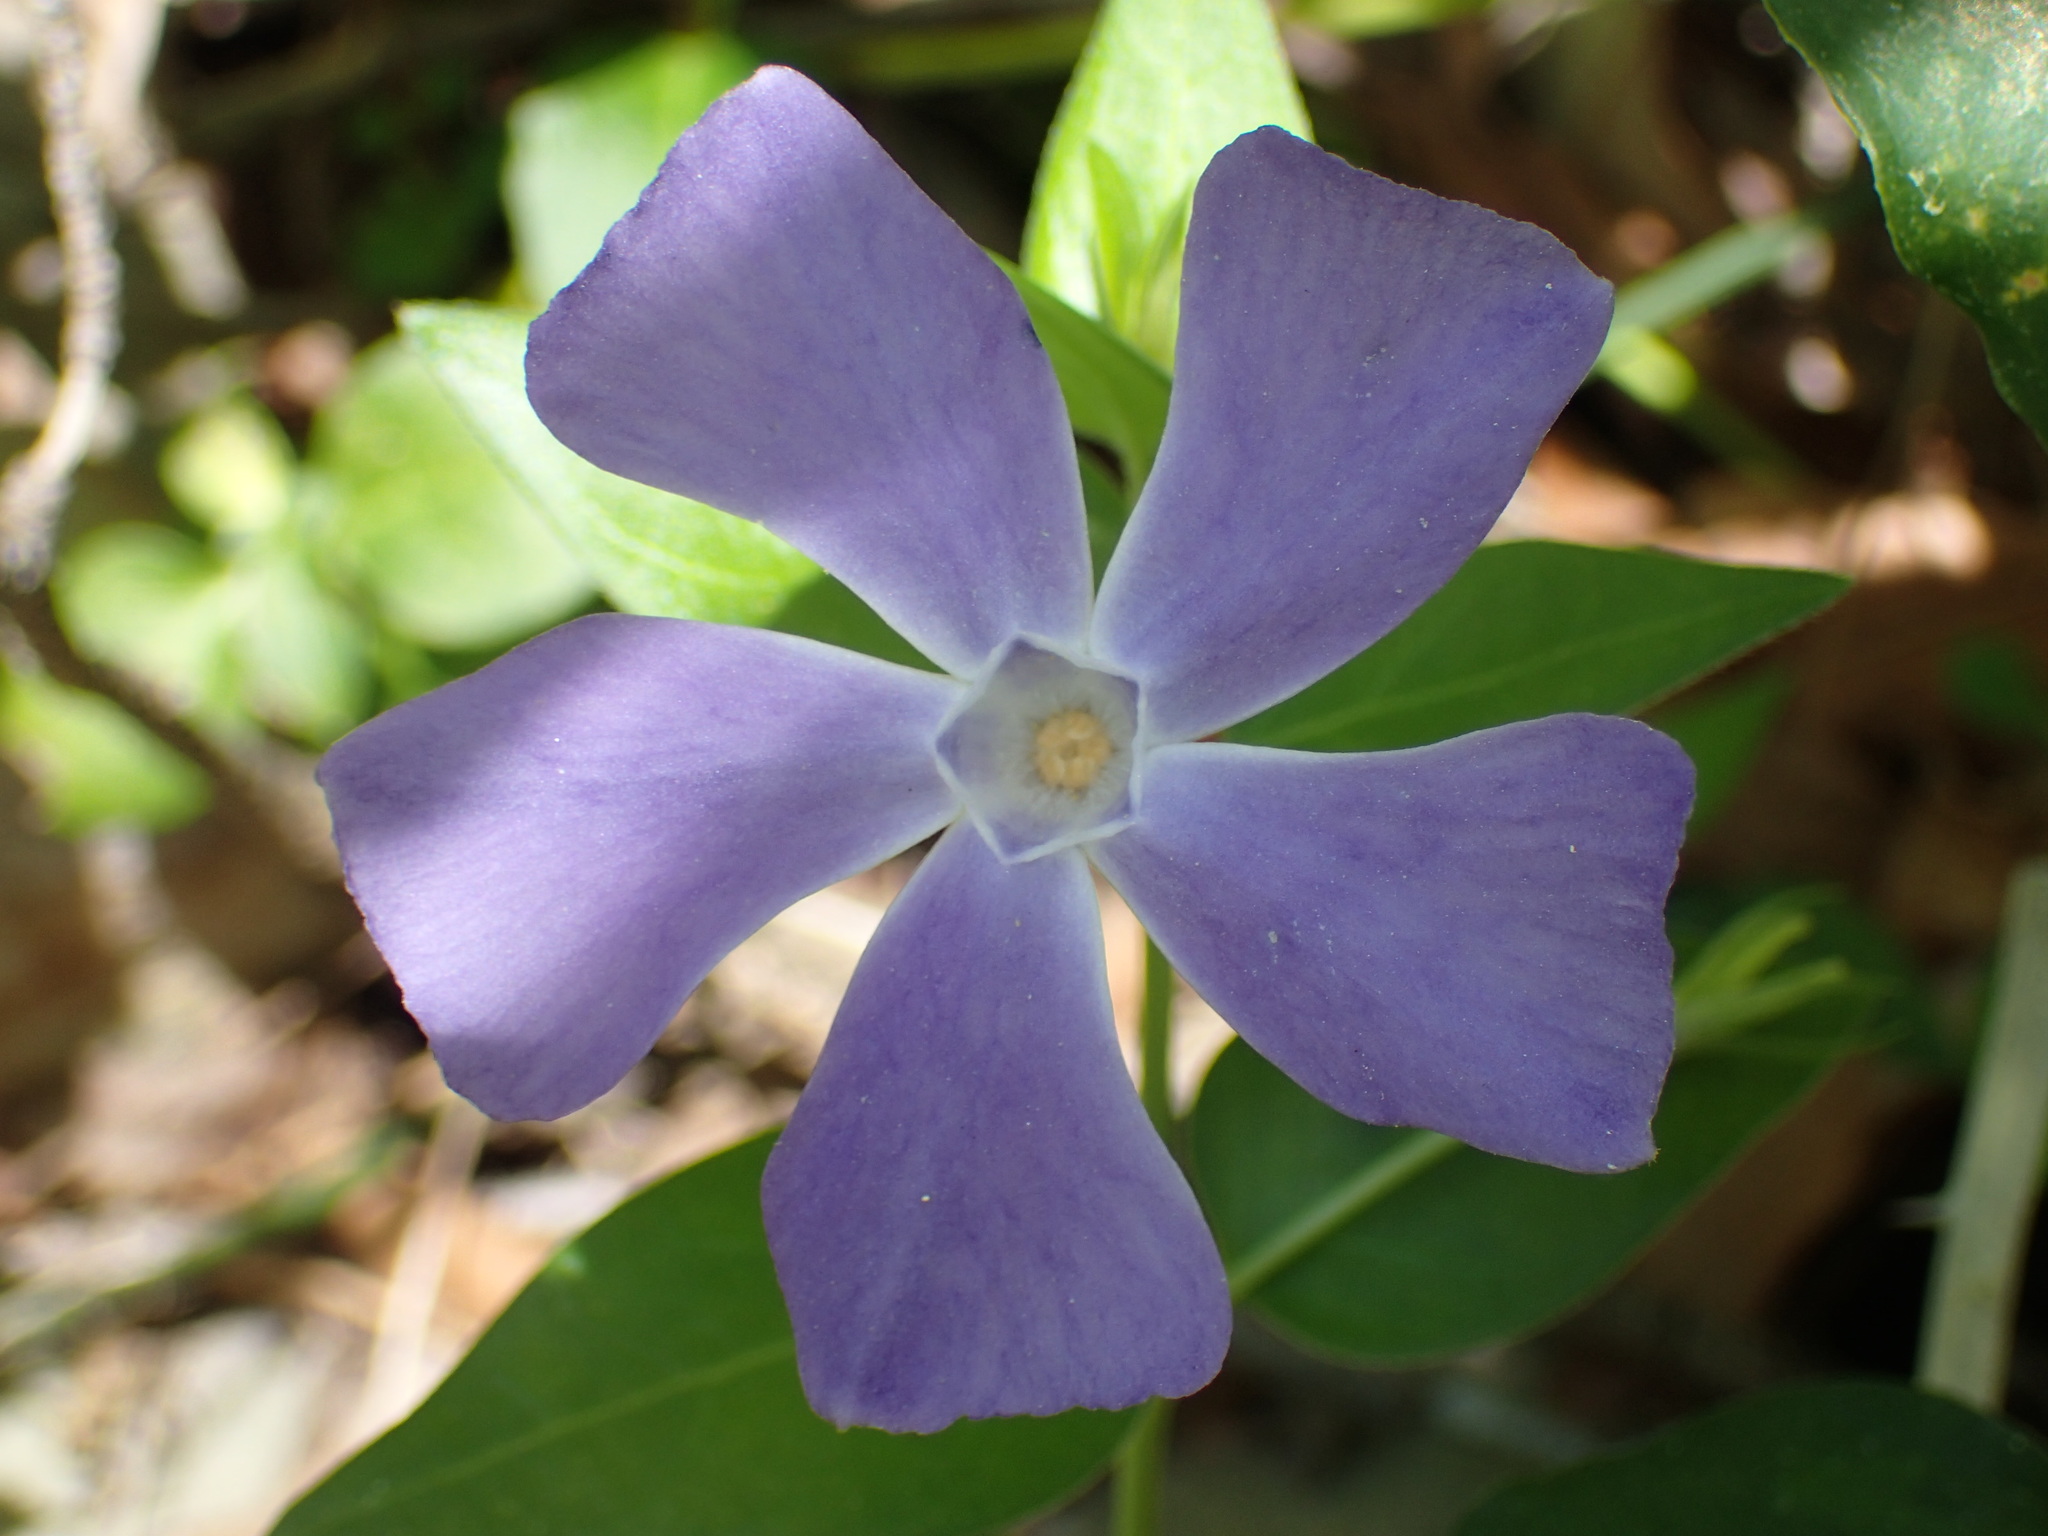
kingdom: Plantae
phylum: Tracheophyta
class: Magnoliopsida
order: Gentianales
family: Apocynaceae
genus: Vinca
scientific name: Vinca major
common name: Greater periwinkle
